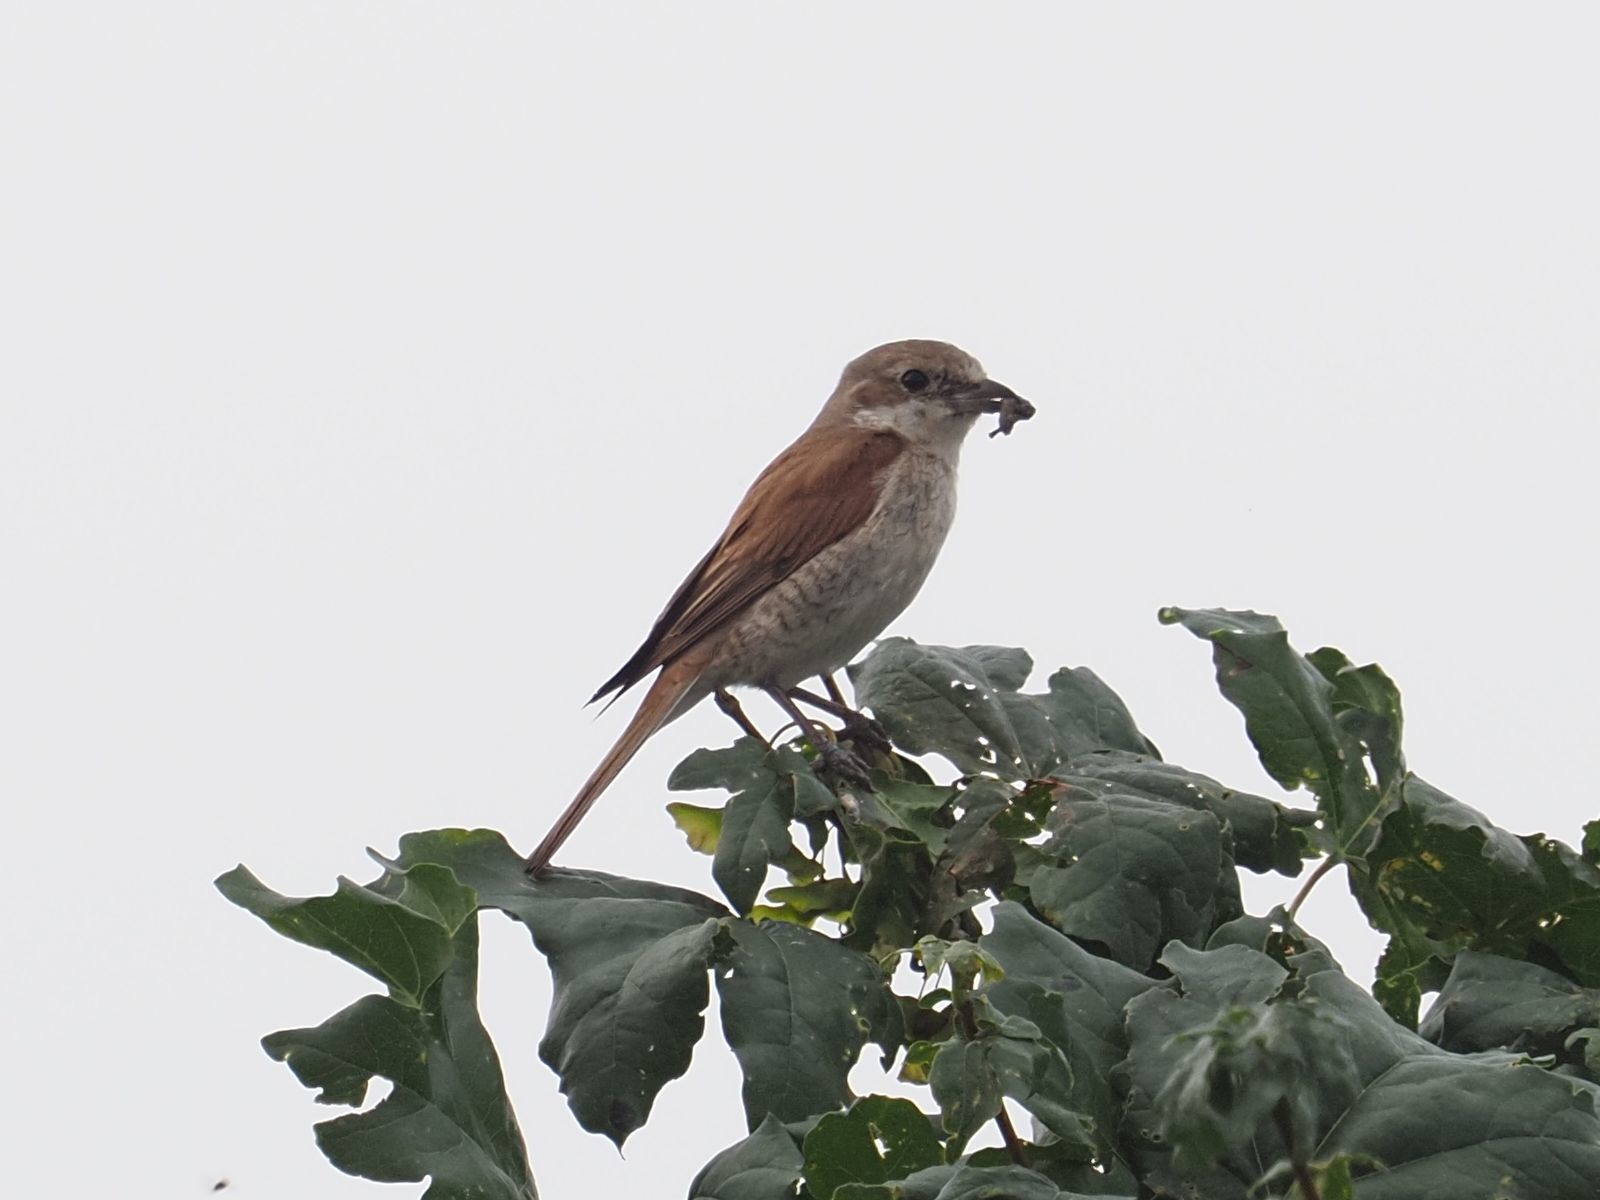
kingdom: Animalia
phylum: Chordata
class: Aves
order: Passeriformes
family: Laniidae
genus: Lanius
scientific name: Lanius collurio
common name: Red-backed shrike
